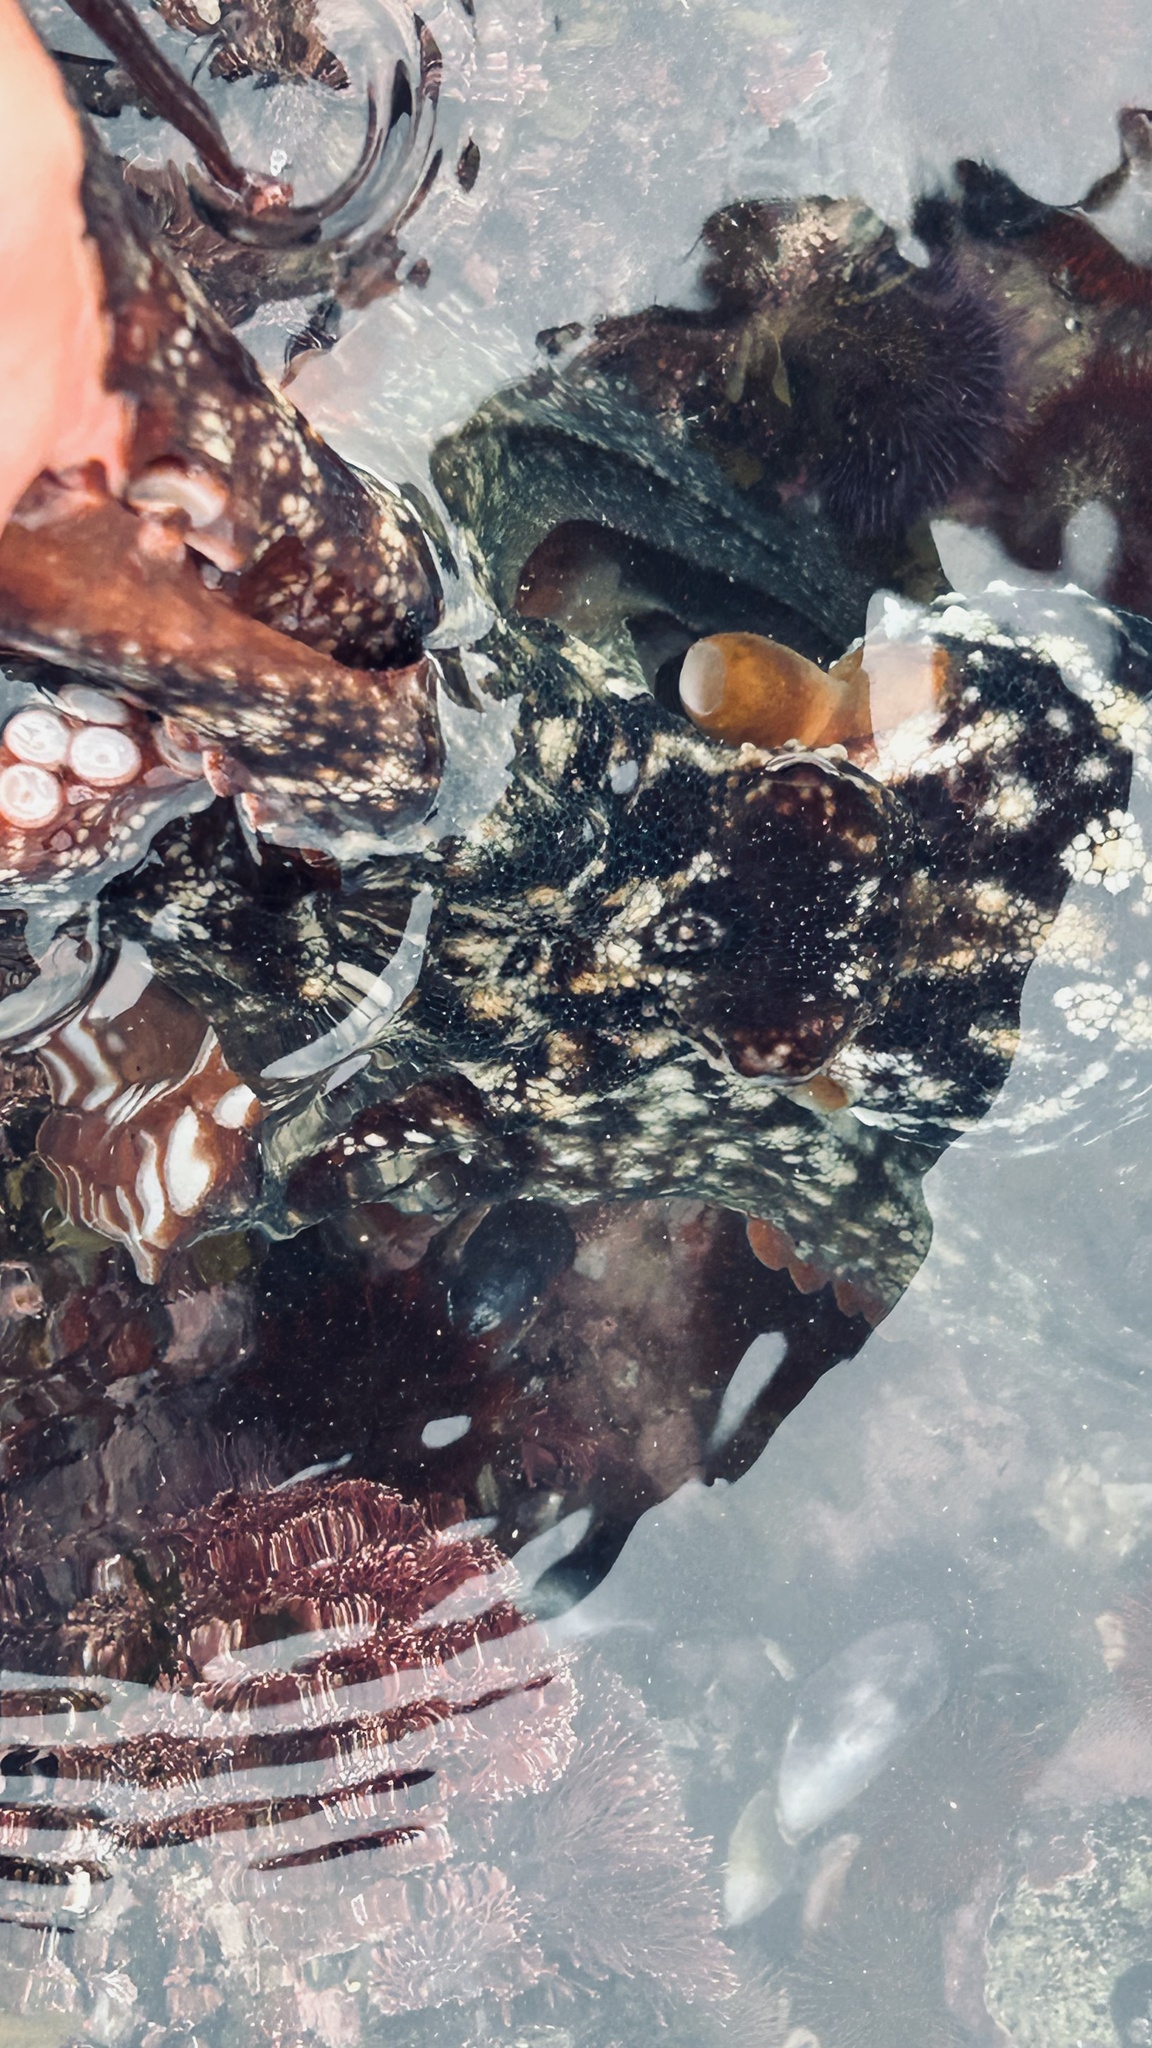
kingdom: Animalia
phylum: Mollusca
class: Cephalopoda
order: Octopoda
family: Octopodidae
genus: Octopus
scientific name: Octopus vulgaris
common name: Common octopus
